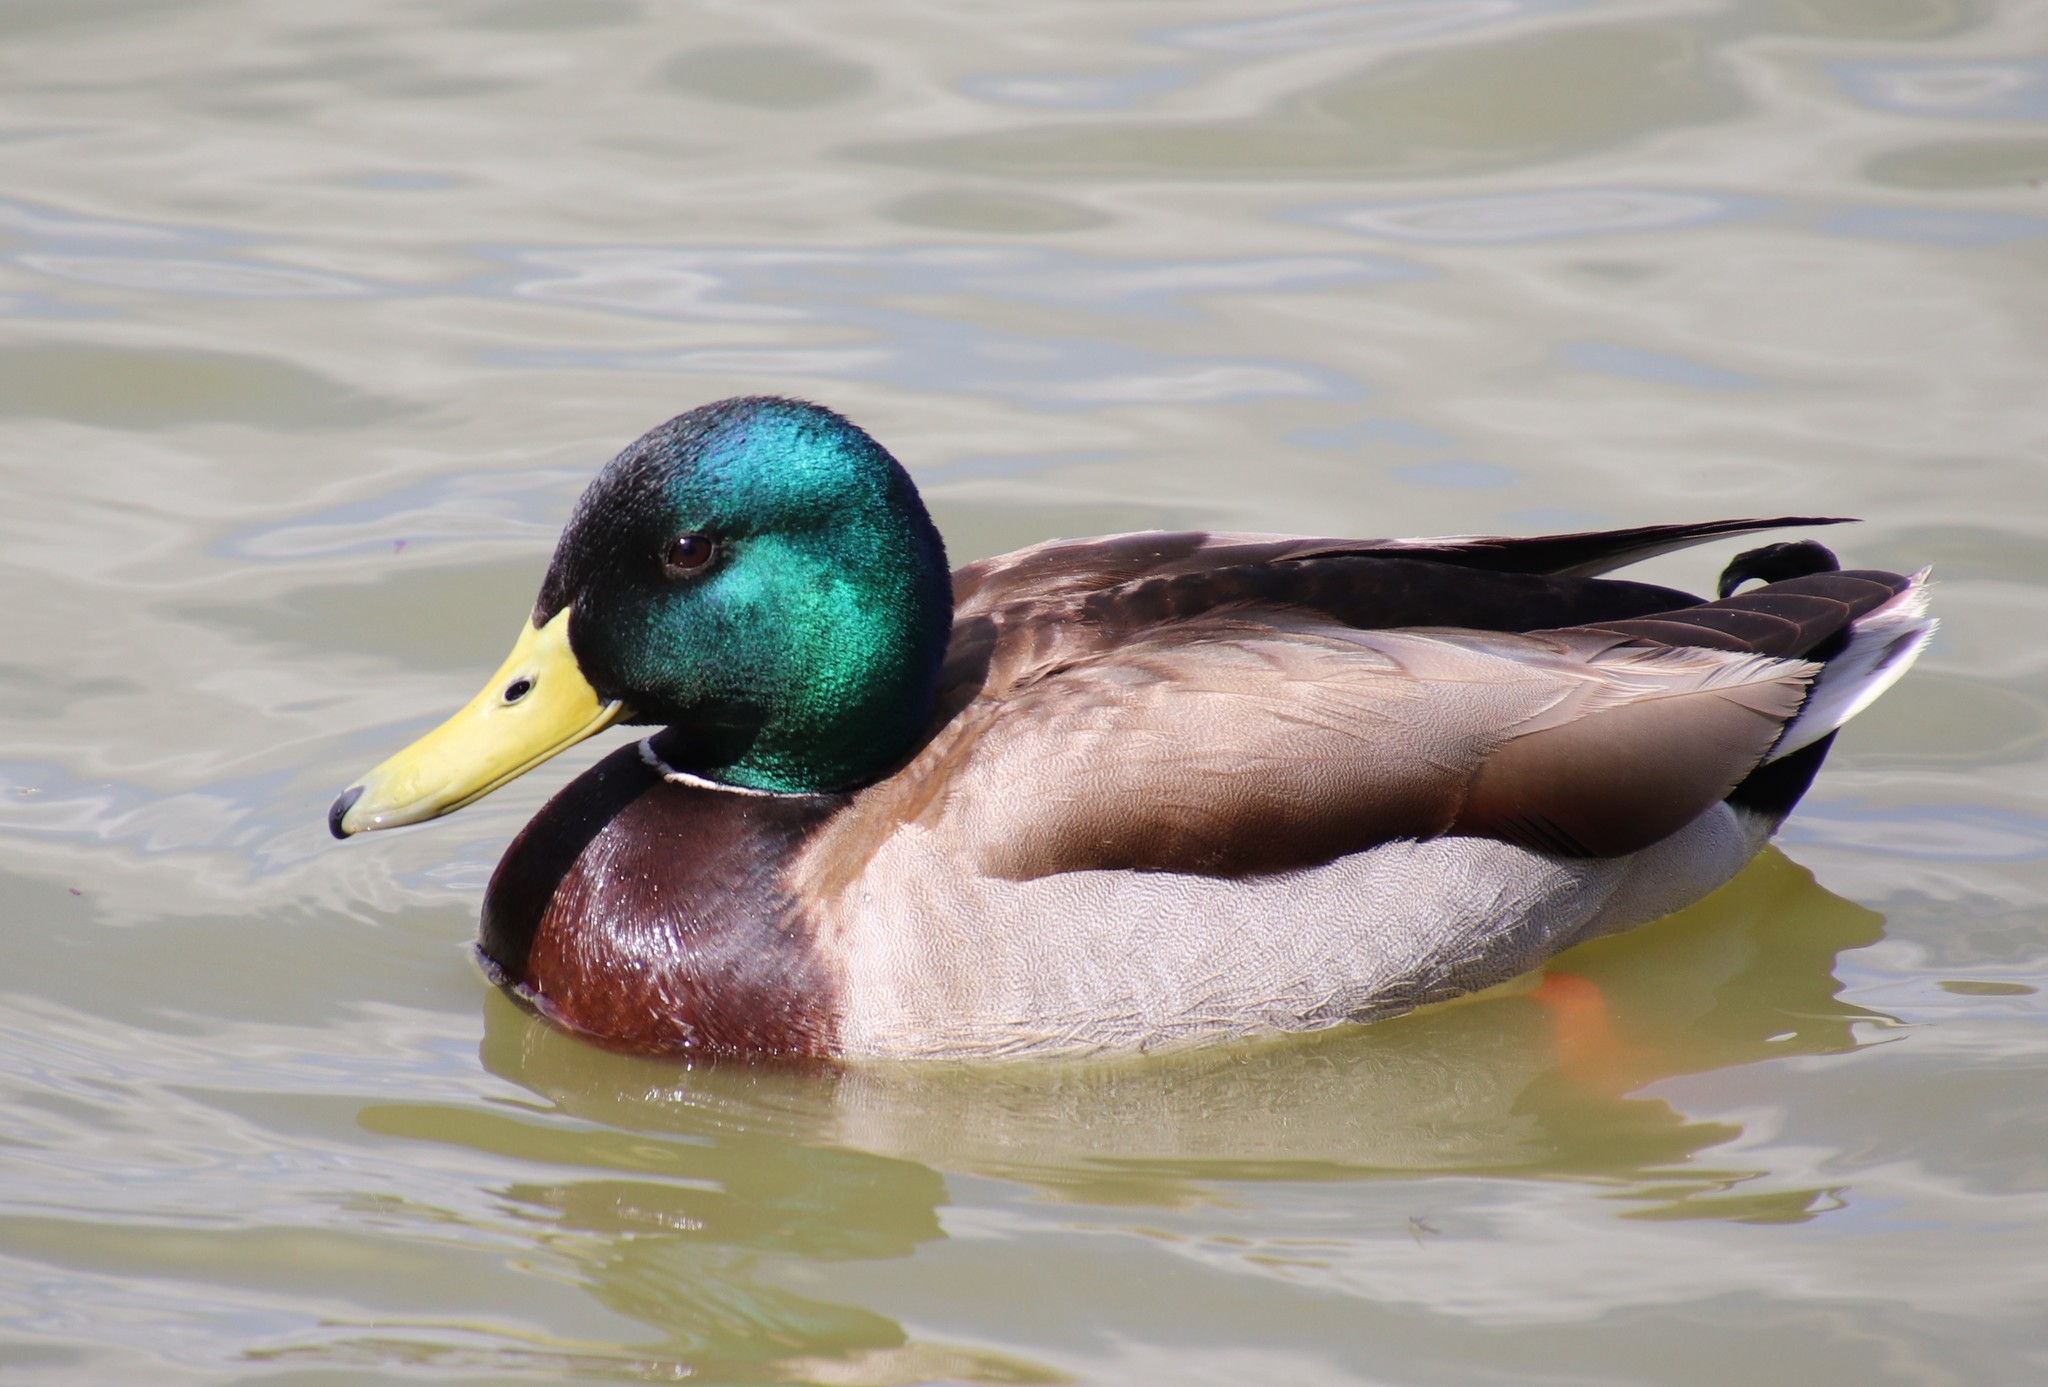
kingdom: Animalia
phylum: Chordata
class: Aves
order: Anseriformes
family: Anatidae
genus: Anas
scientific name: Anas platyrhynchos
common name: Mallard
